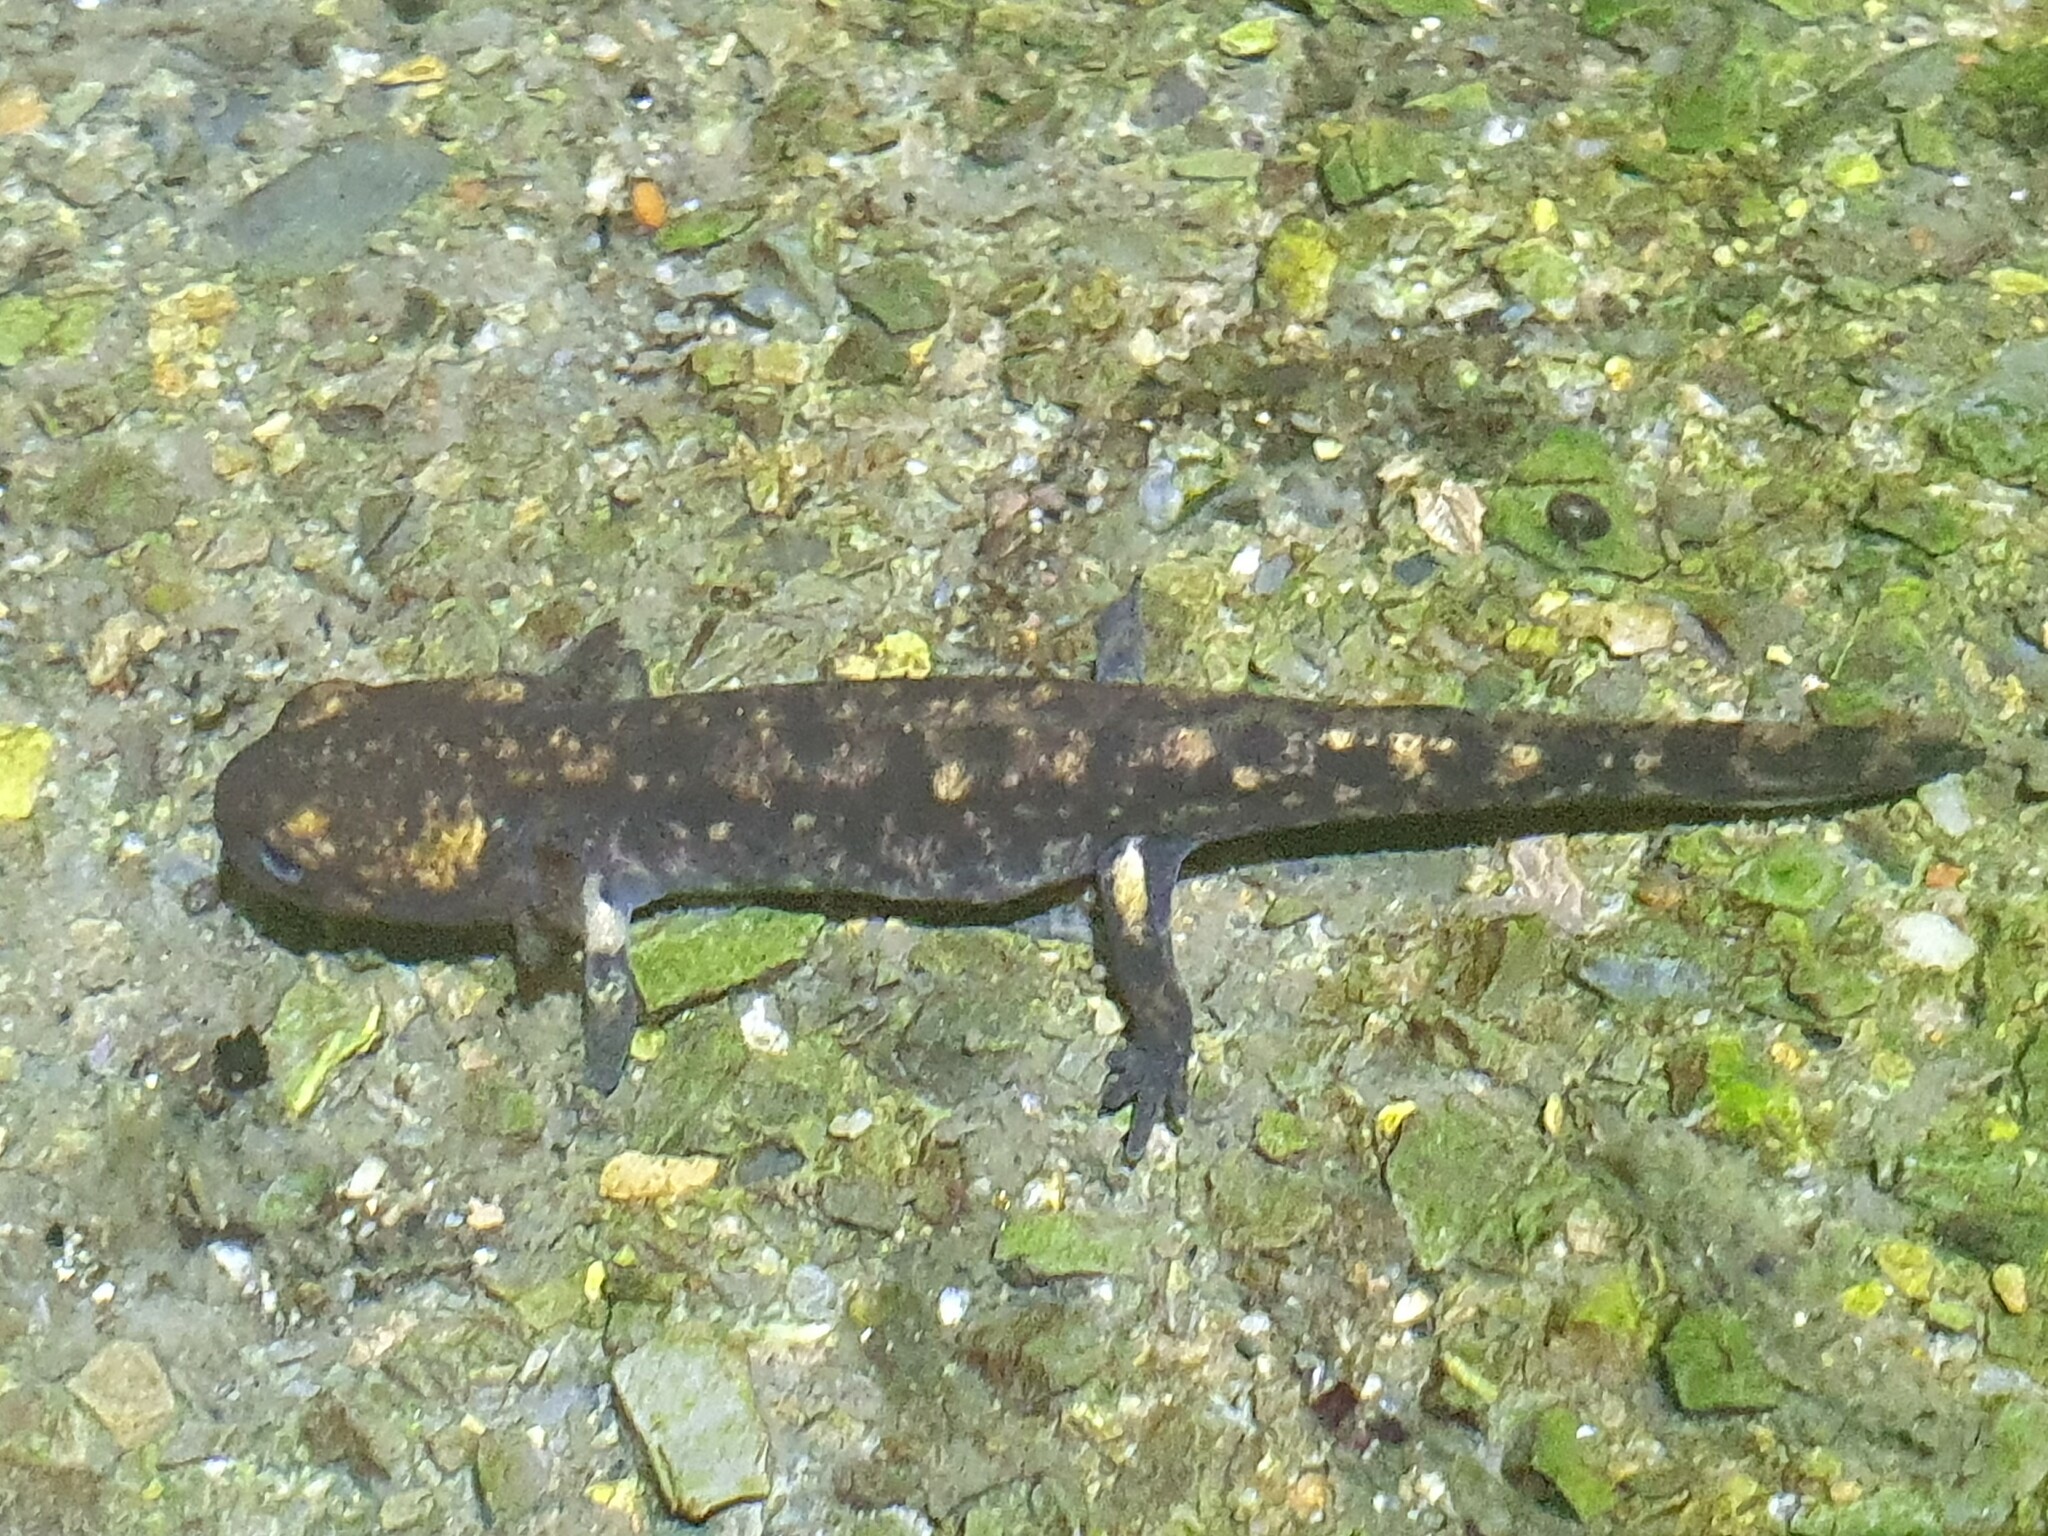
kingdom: Animalia
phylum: Chordata
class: Amphibia
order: Caudata
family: Salamandridae
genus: Salamandra
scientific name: Salamandra salamandra
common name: Fire salamander
